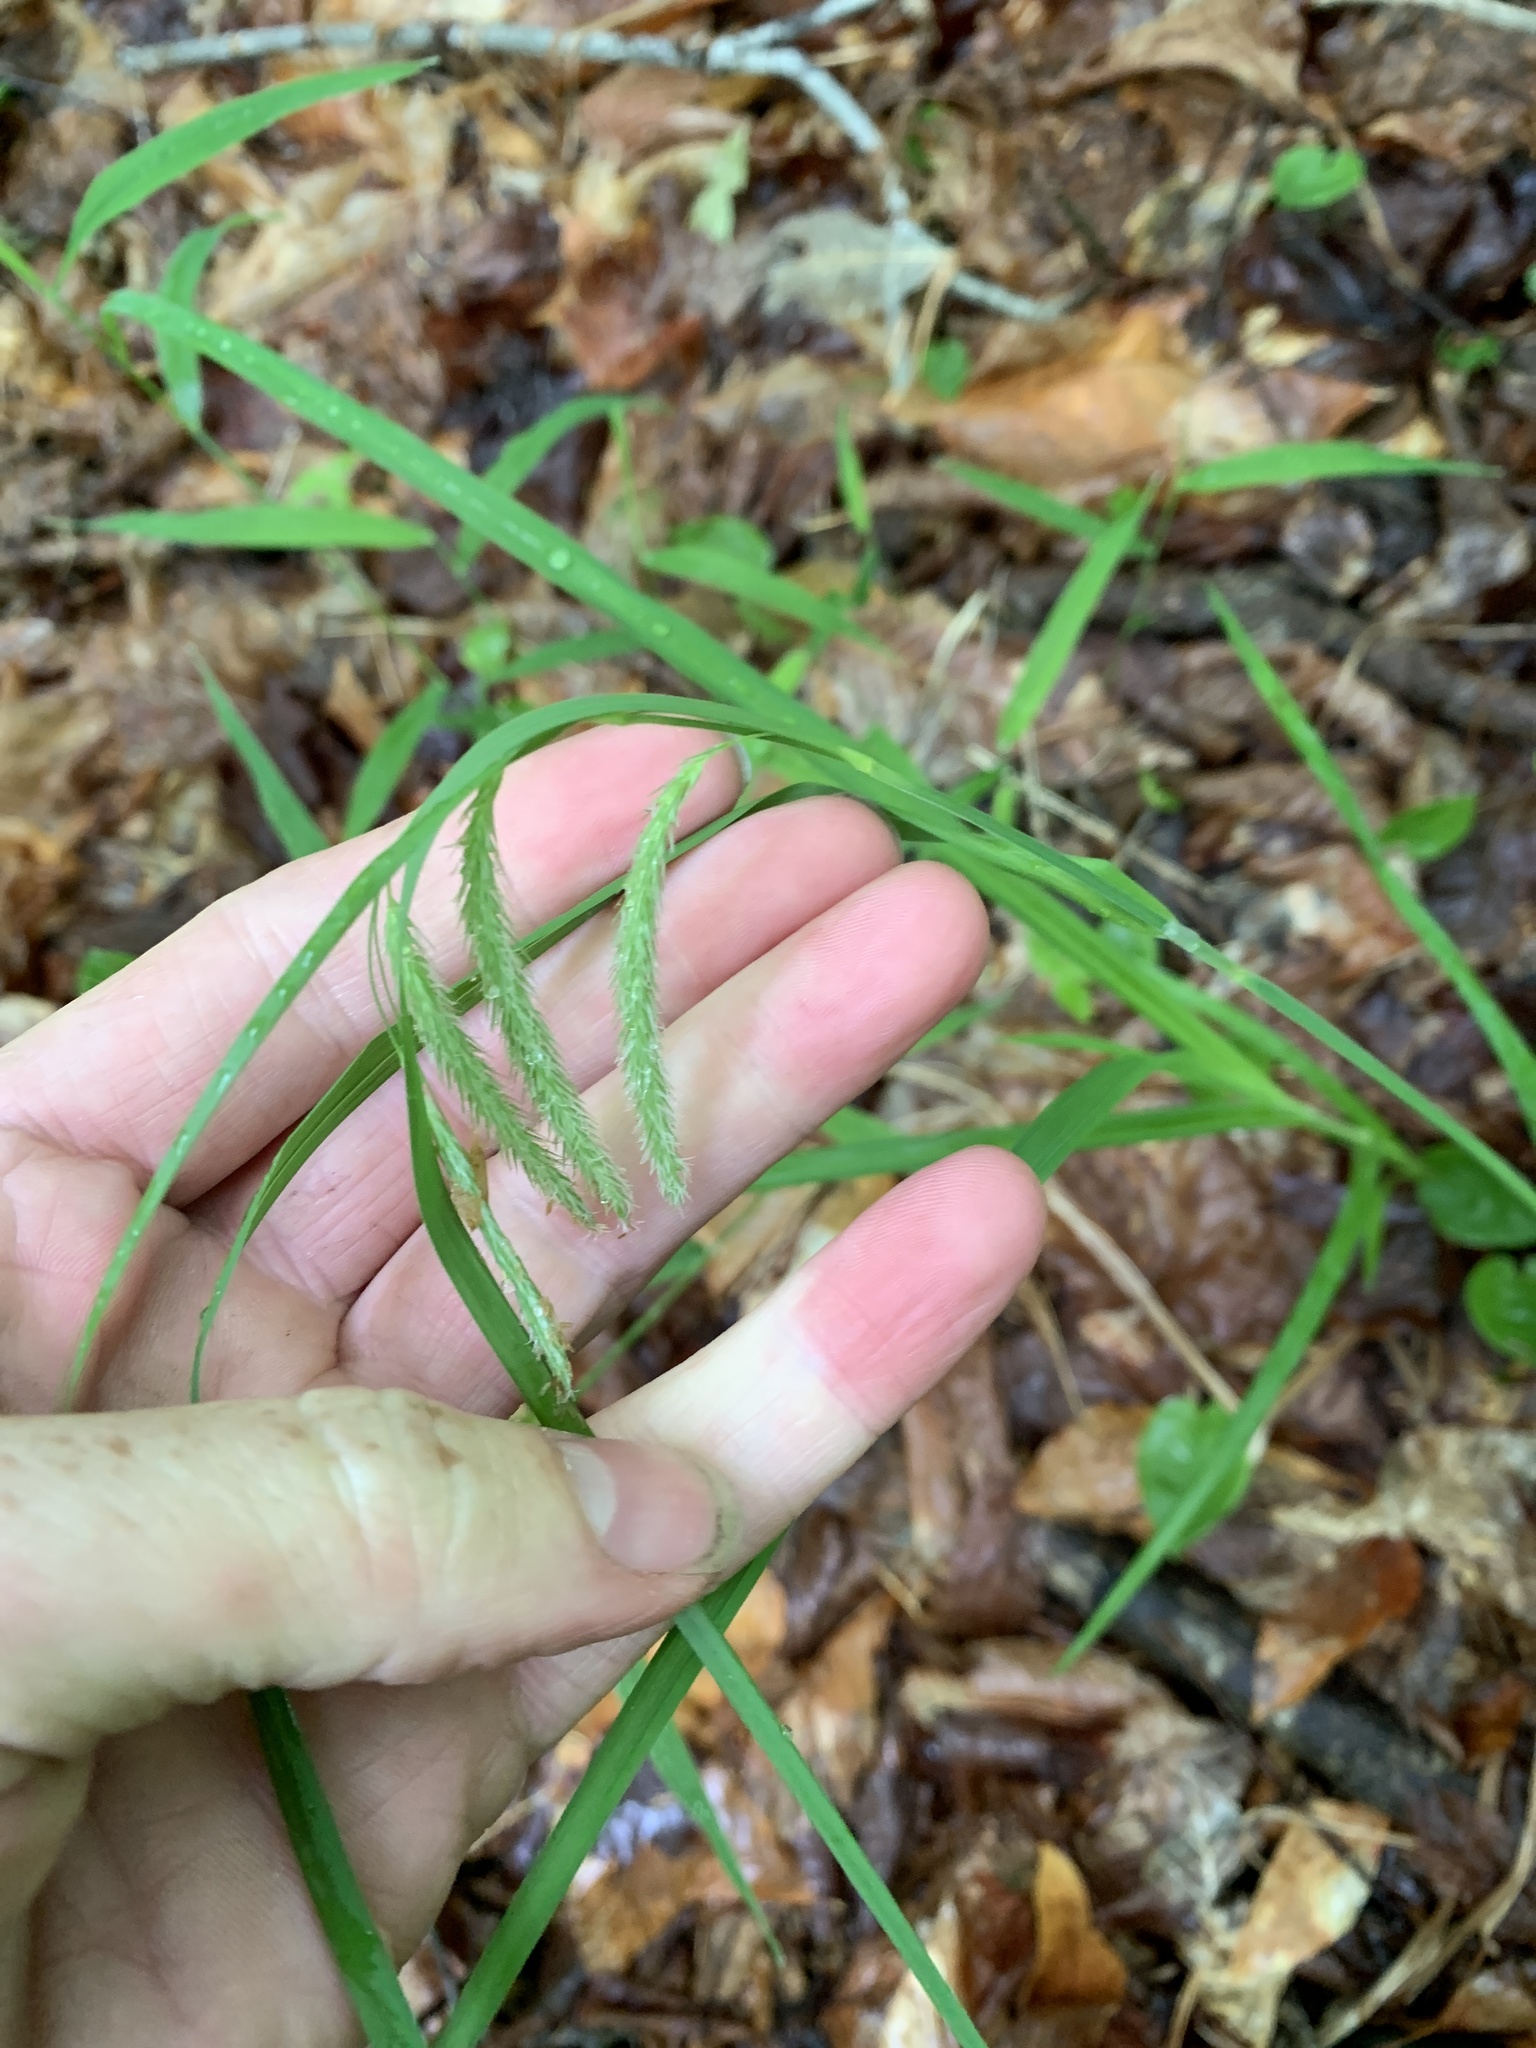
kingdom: Plantae
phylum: Tracheophyta
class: Liliopsida
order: Poales
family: Cyperaceae
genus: Carex
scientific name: Carex gynandra
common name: Nodding sedge
